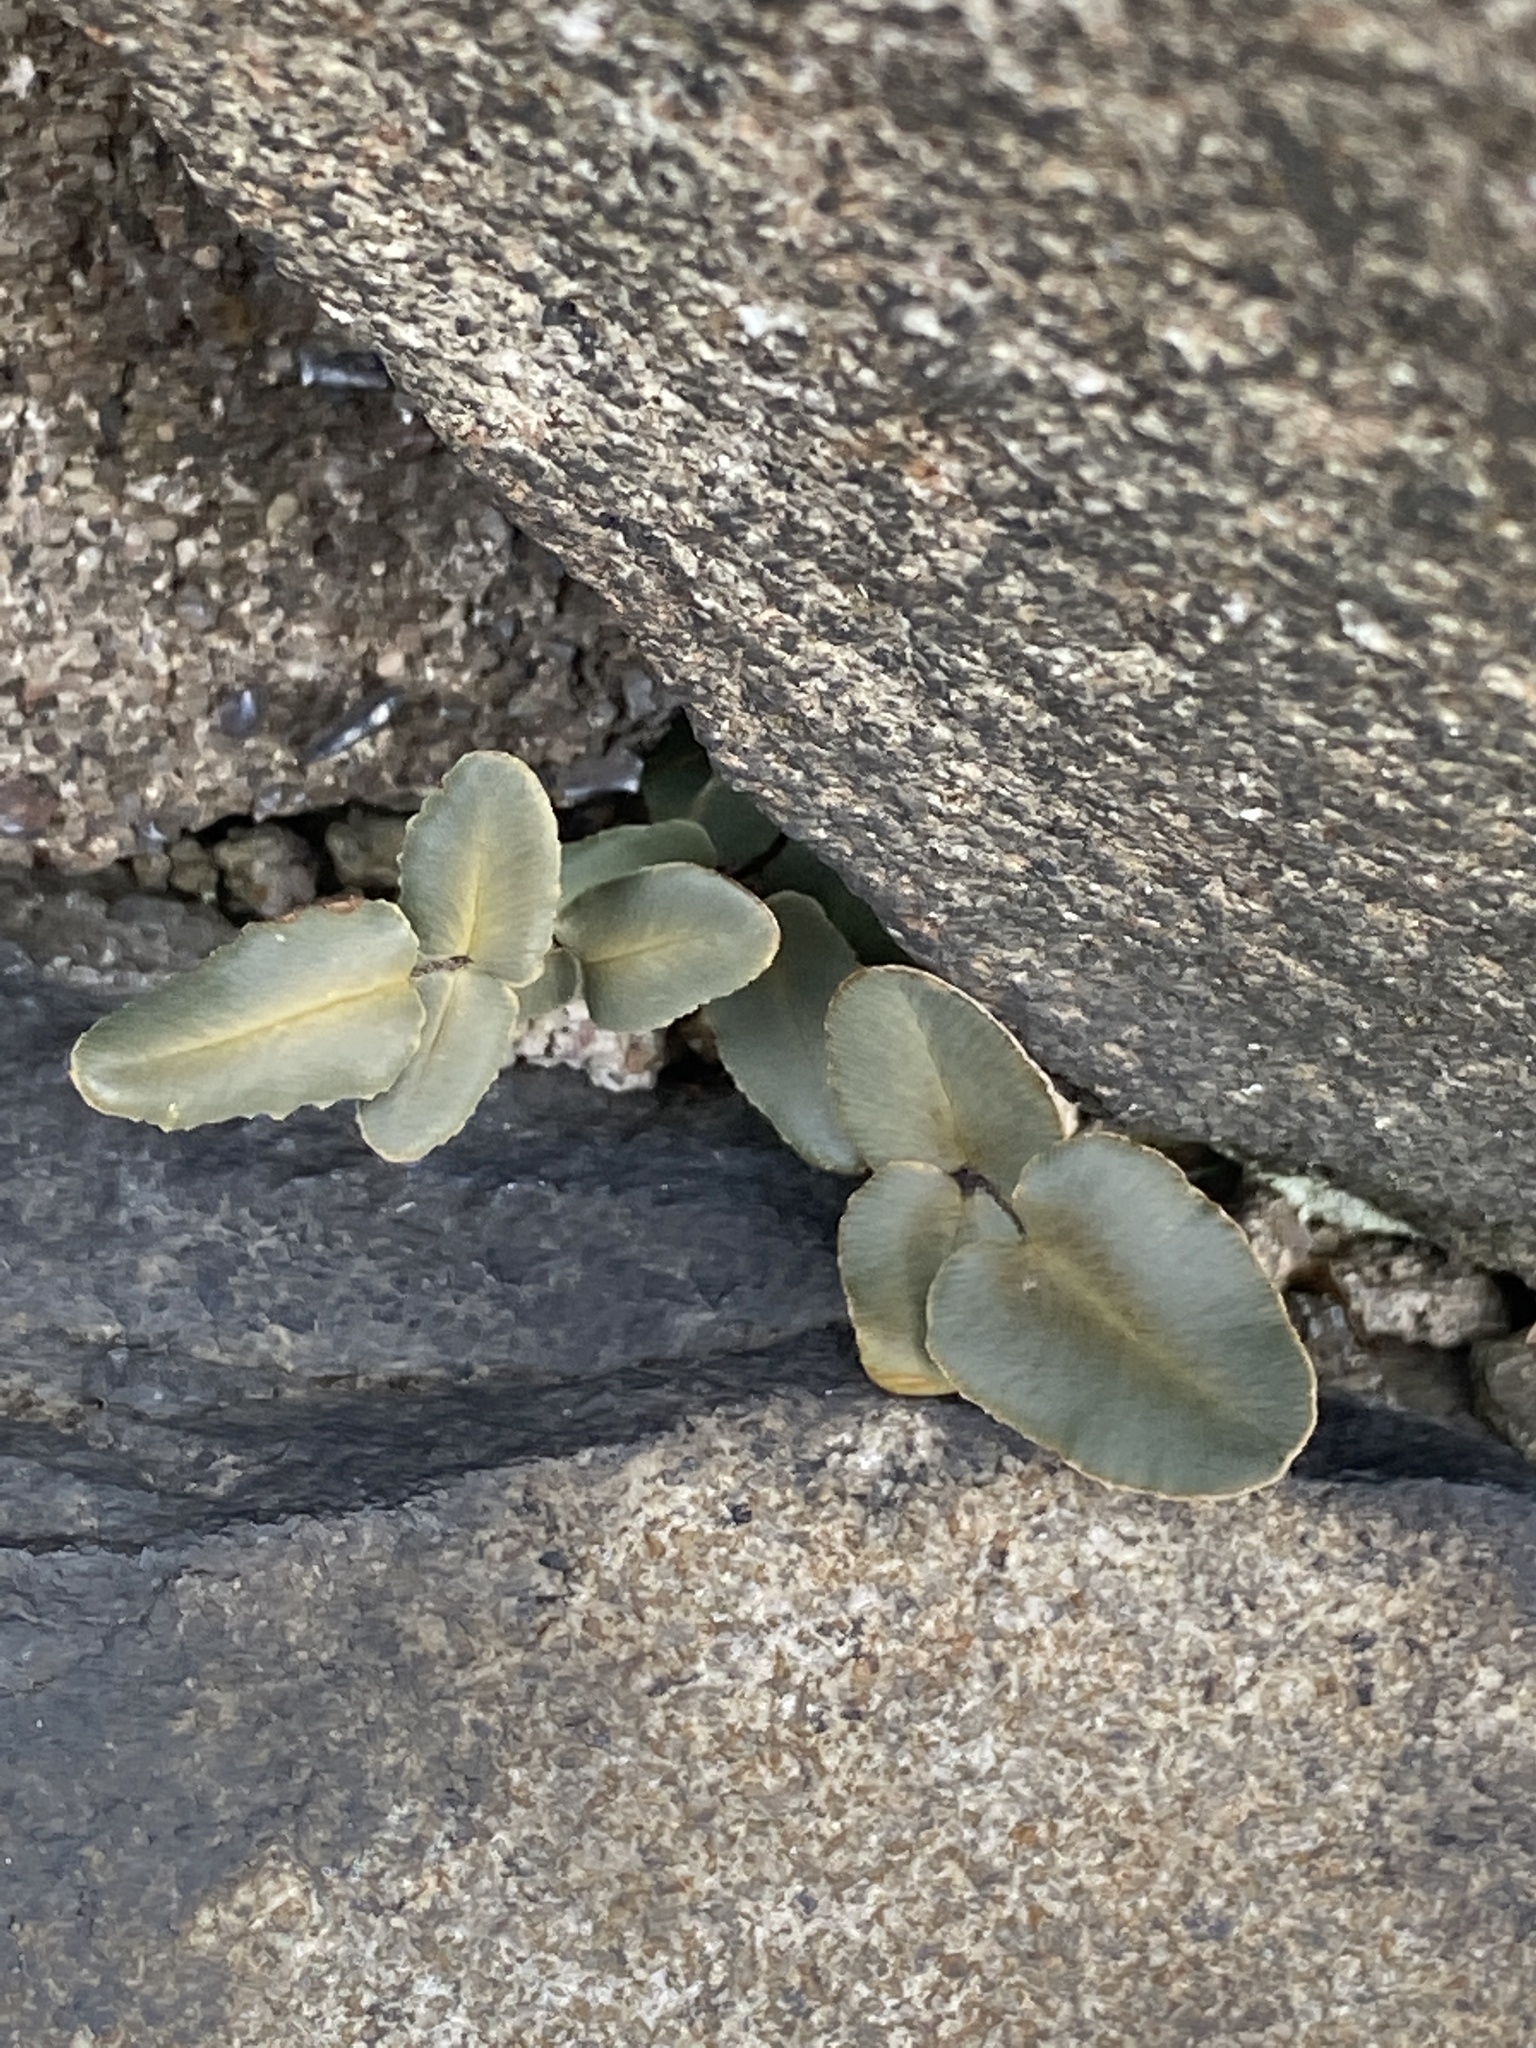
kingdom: Plantae
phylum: Tracheophyta
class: Polypodiopsida
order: Polypodiales
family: Pteridaceae
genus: Pellaea
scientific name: Pellaea atropurpurea
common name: Hairy cliffbrake
